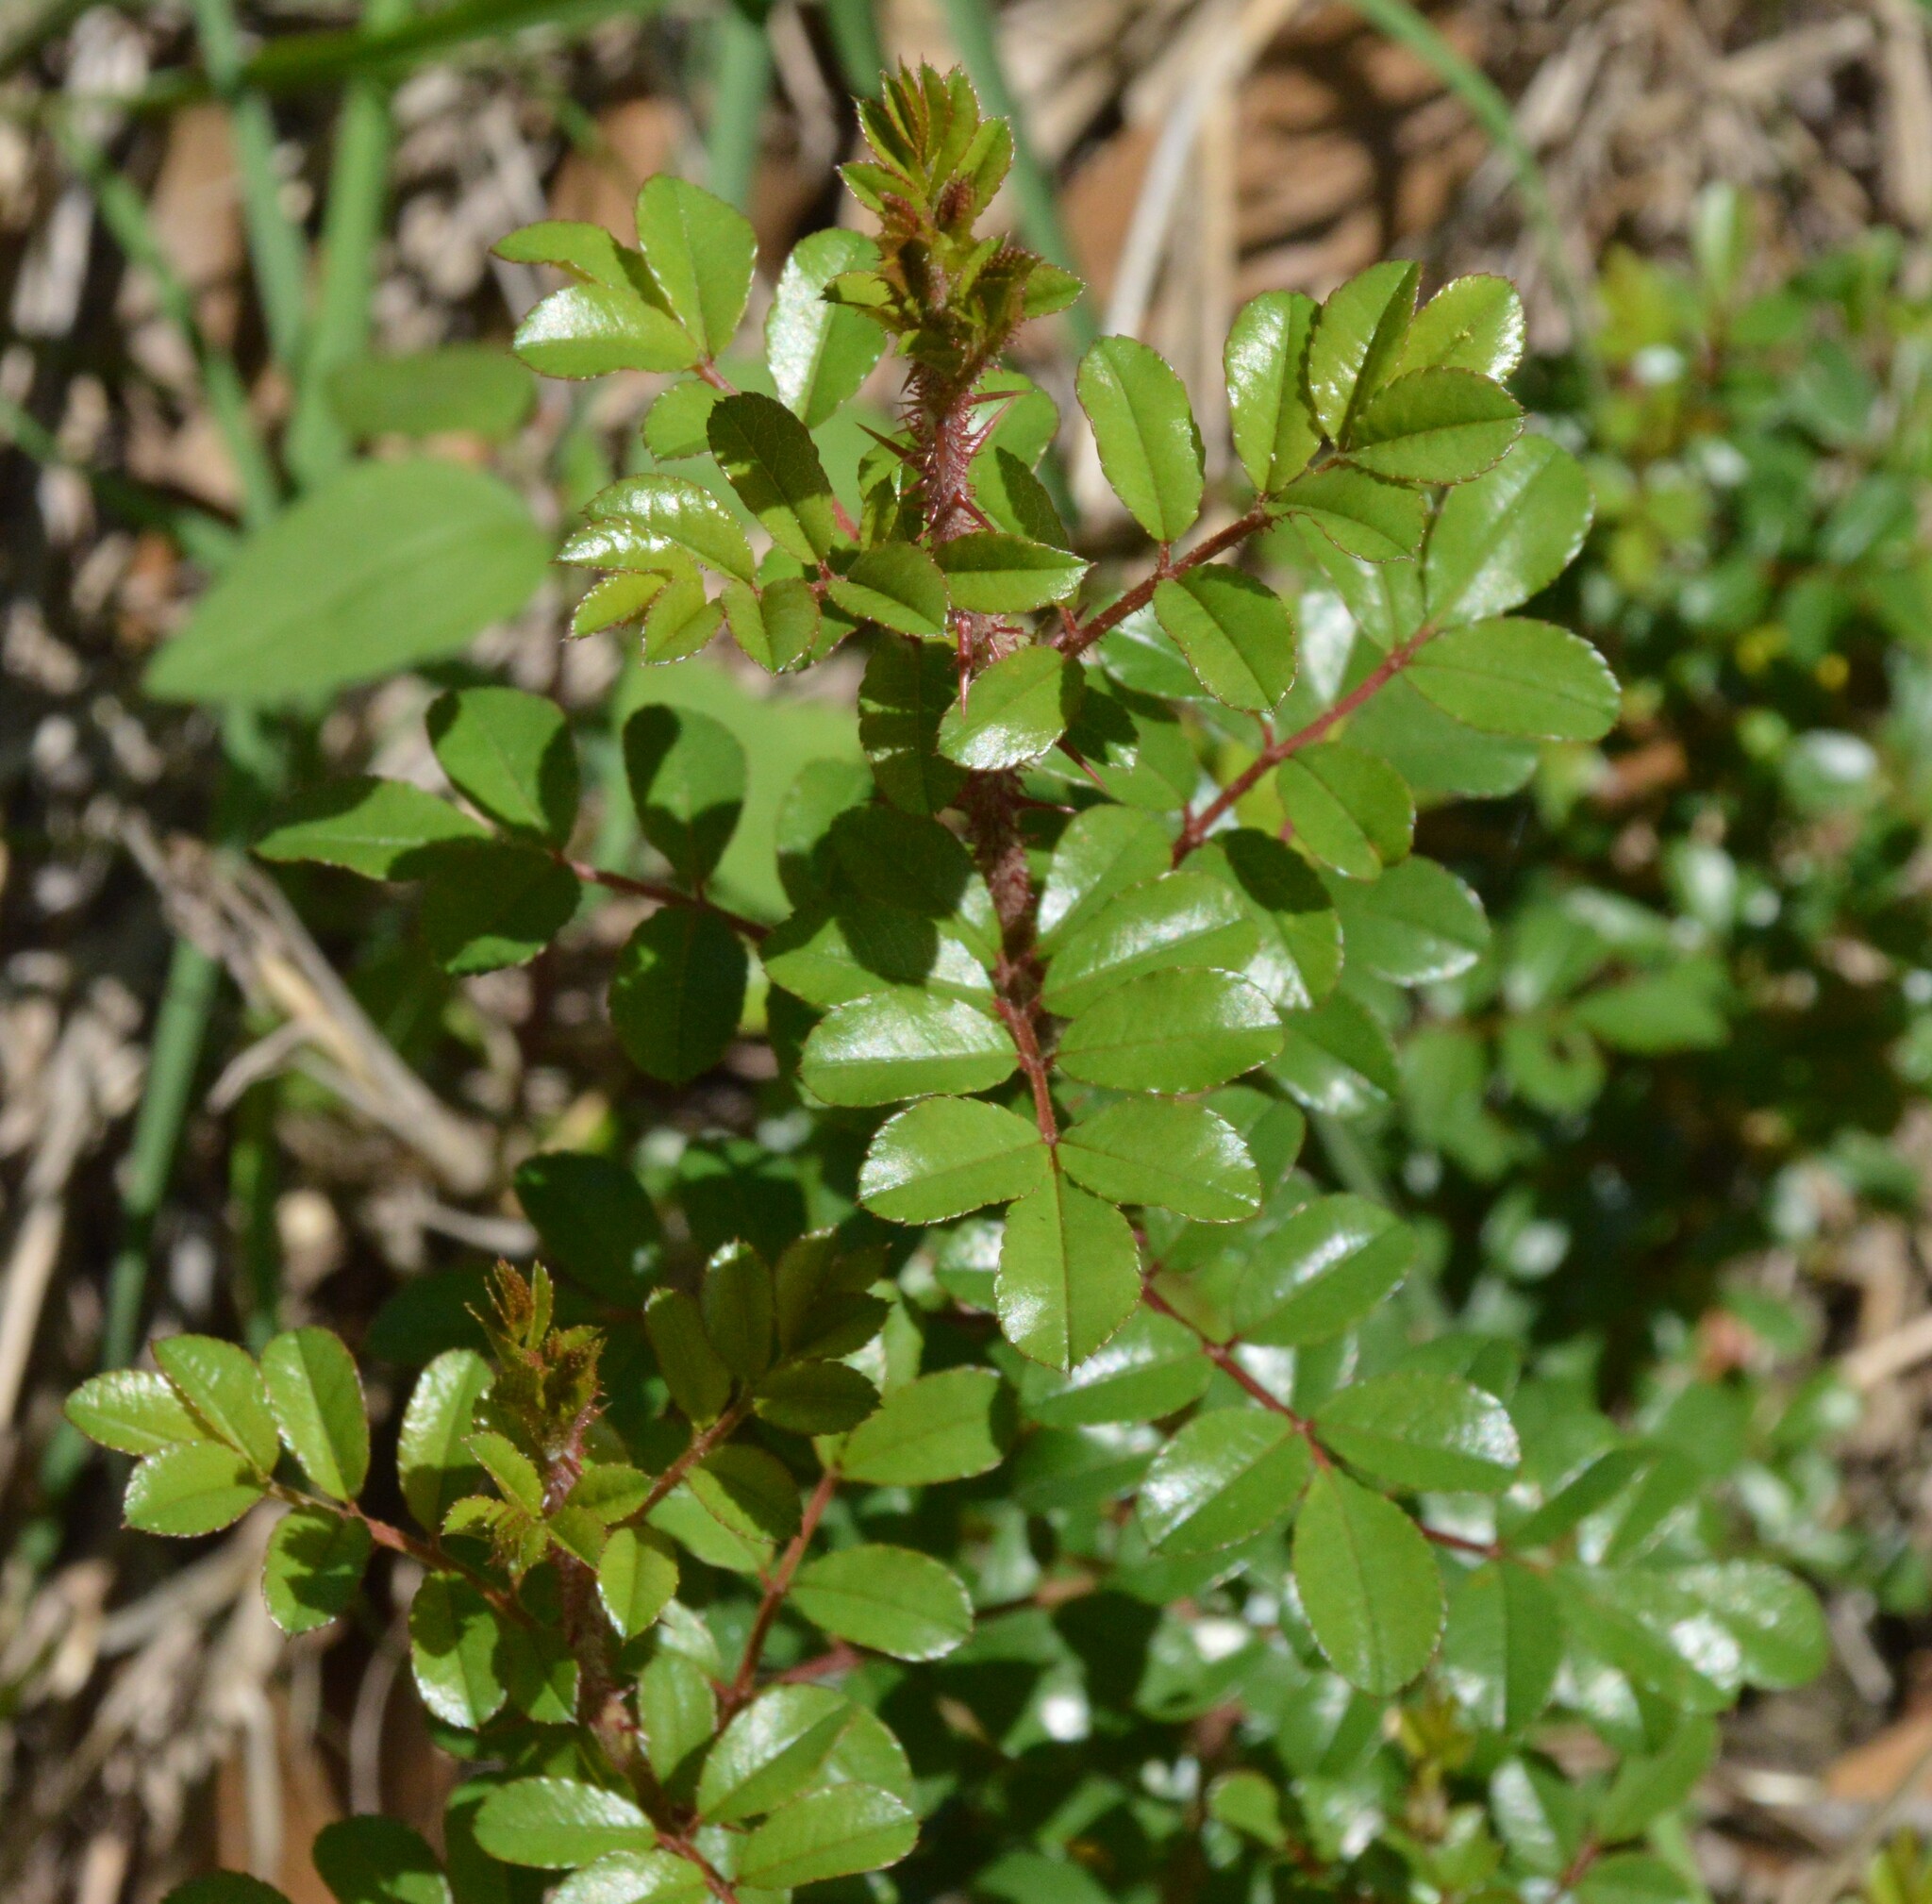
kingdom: Plantae
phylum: Tracheophyta
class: Magnoliopsida
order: Rosales
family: Rosaceae
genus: Rosa
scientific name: Rosa bracteata
